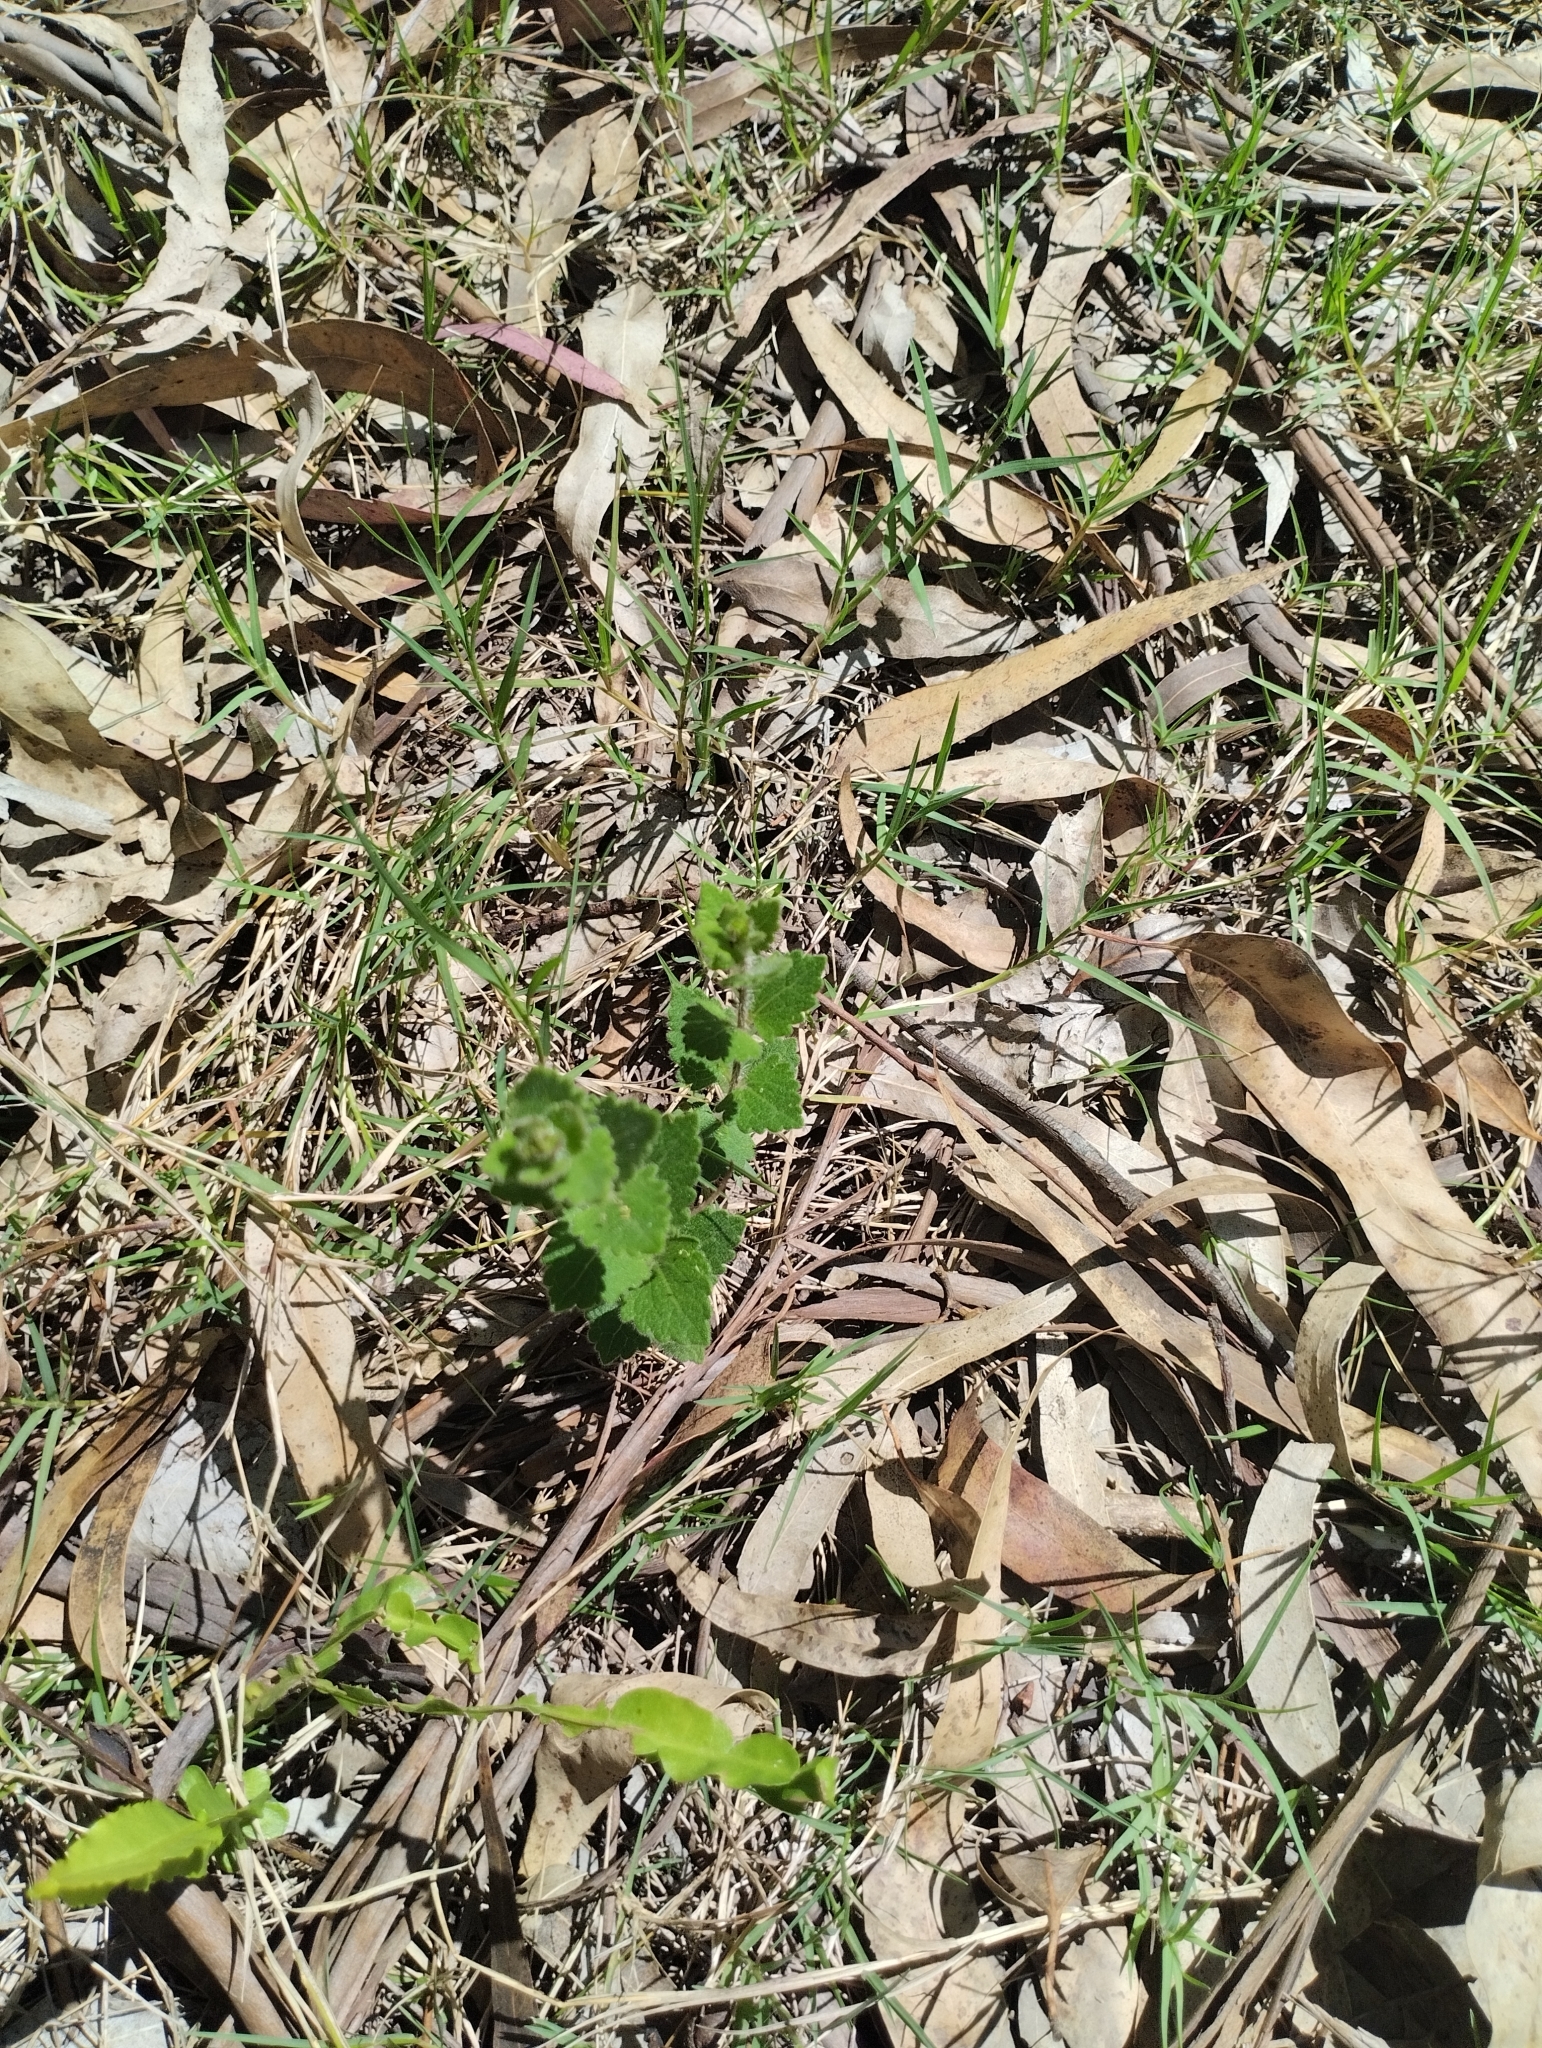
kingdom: Plantae
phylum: Tracheophyta
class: Magnoliopsida
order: Asterales
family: Asteraceae
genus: Chromolaena
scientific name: Chromolaena hirsuta
